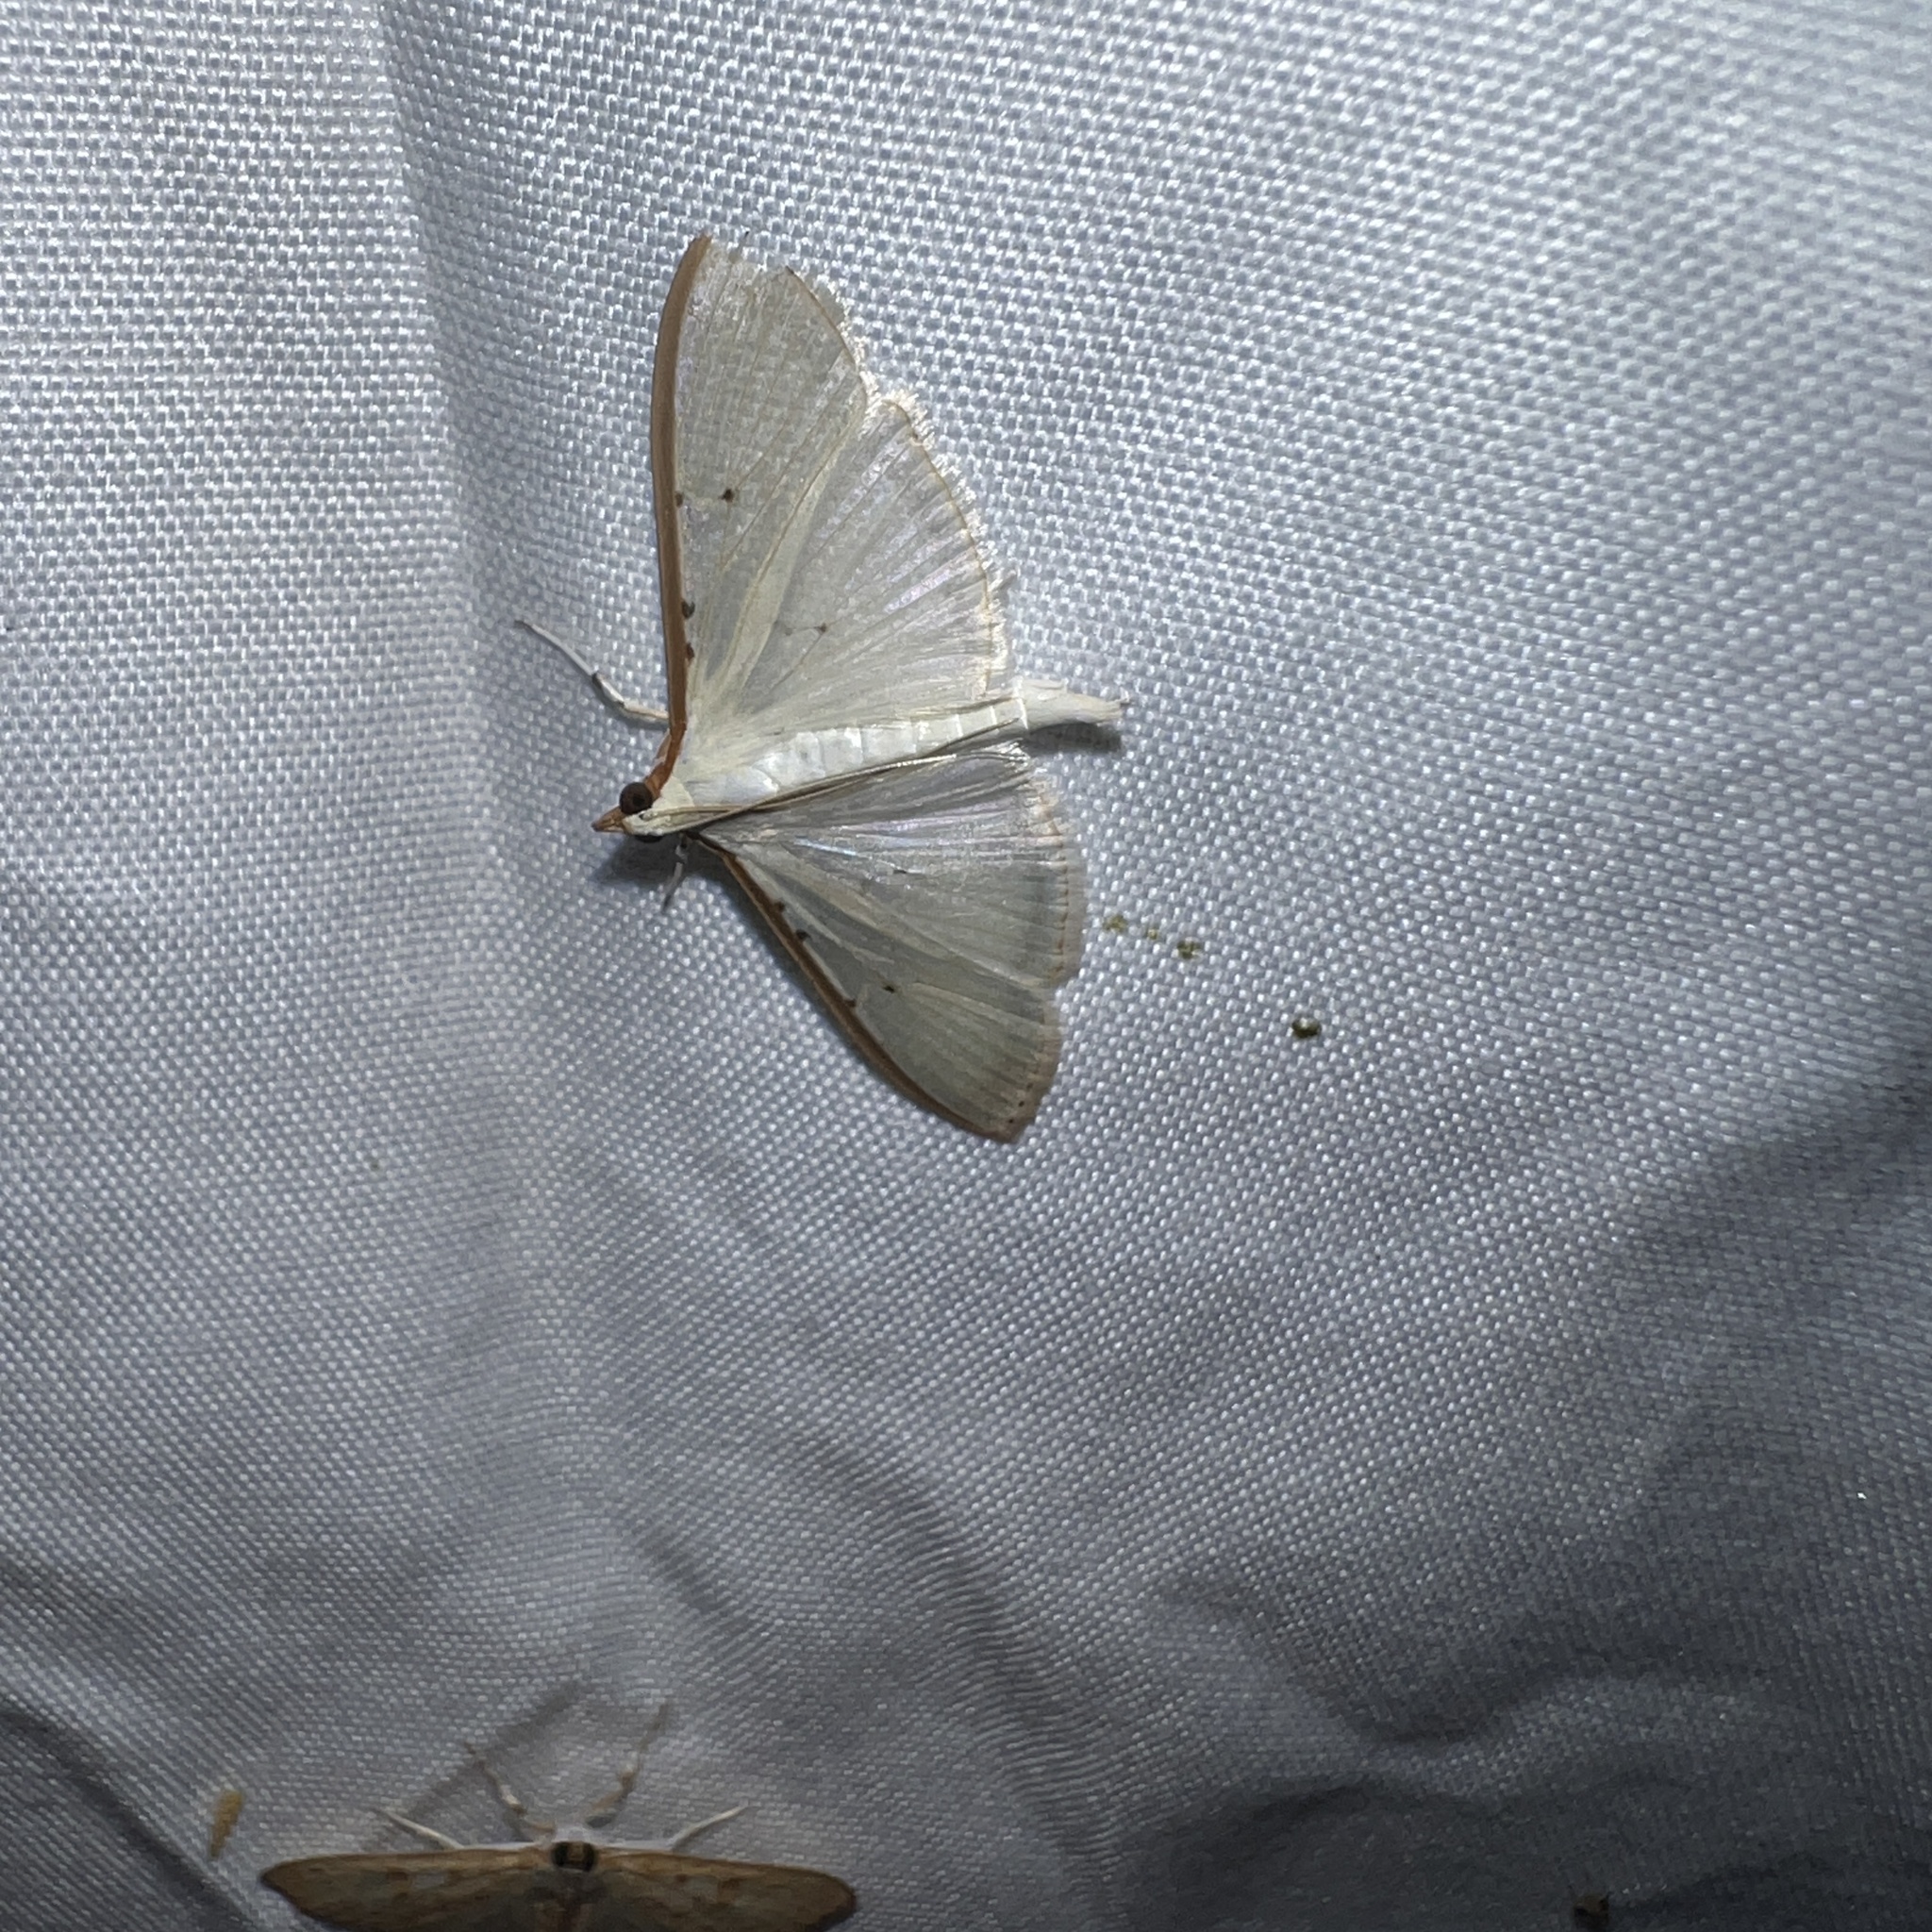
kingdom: Animalia
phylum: Arthropoda
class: Insecta
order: Lepidoptera
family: Crambidae
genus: Palpita
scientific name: Palpita quadristigmalis
